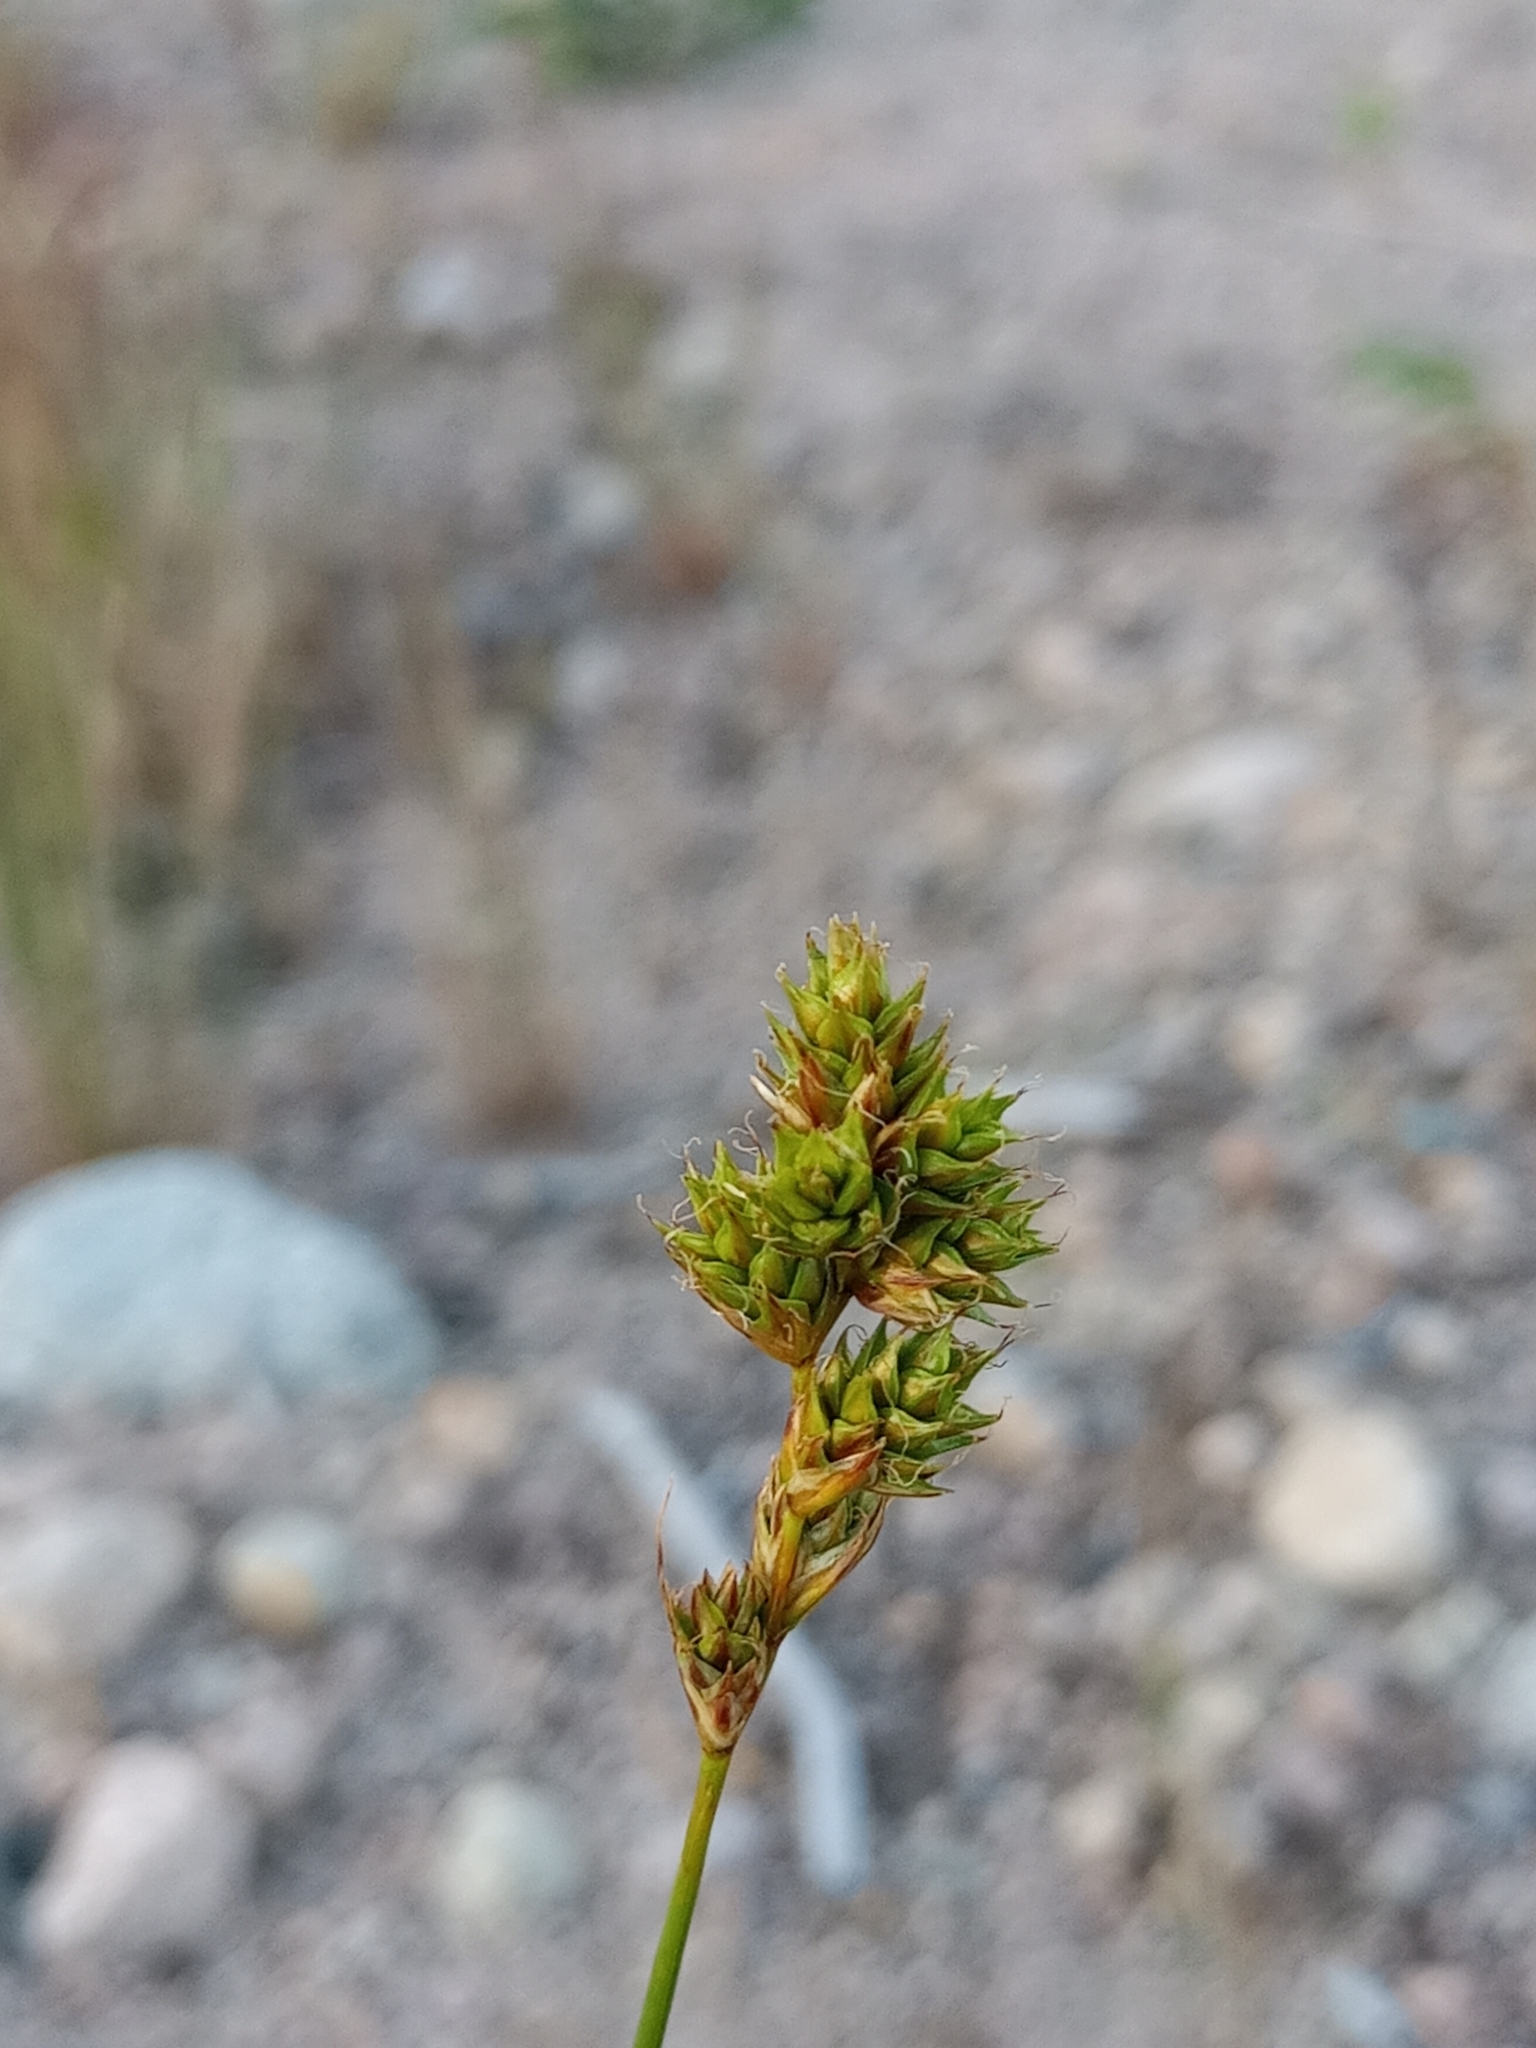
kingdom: Plantae
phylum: Tracheophyta
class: Liliopsida
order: Poales
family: Cyperaceae
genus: Carex
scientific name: Carex adusta
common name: Browned sedge
